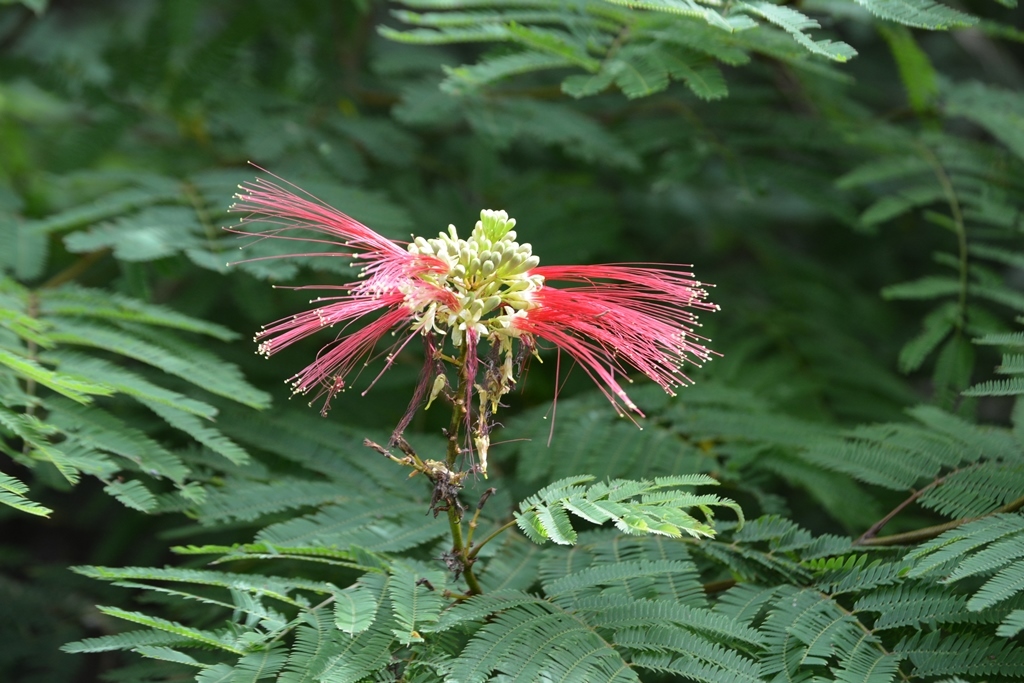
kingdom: Plantae
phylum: Tracheophyta
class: Magnoliopsida
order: Fabales
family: Fabaceae
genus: Calliandra
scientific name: Calliandra houstoniana
